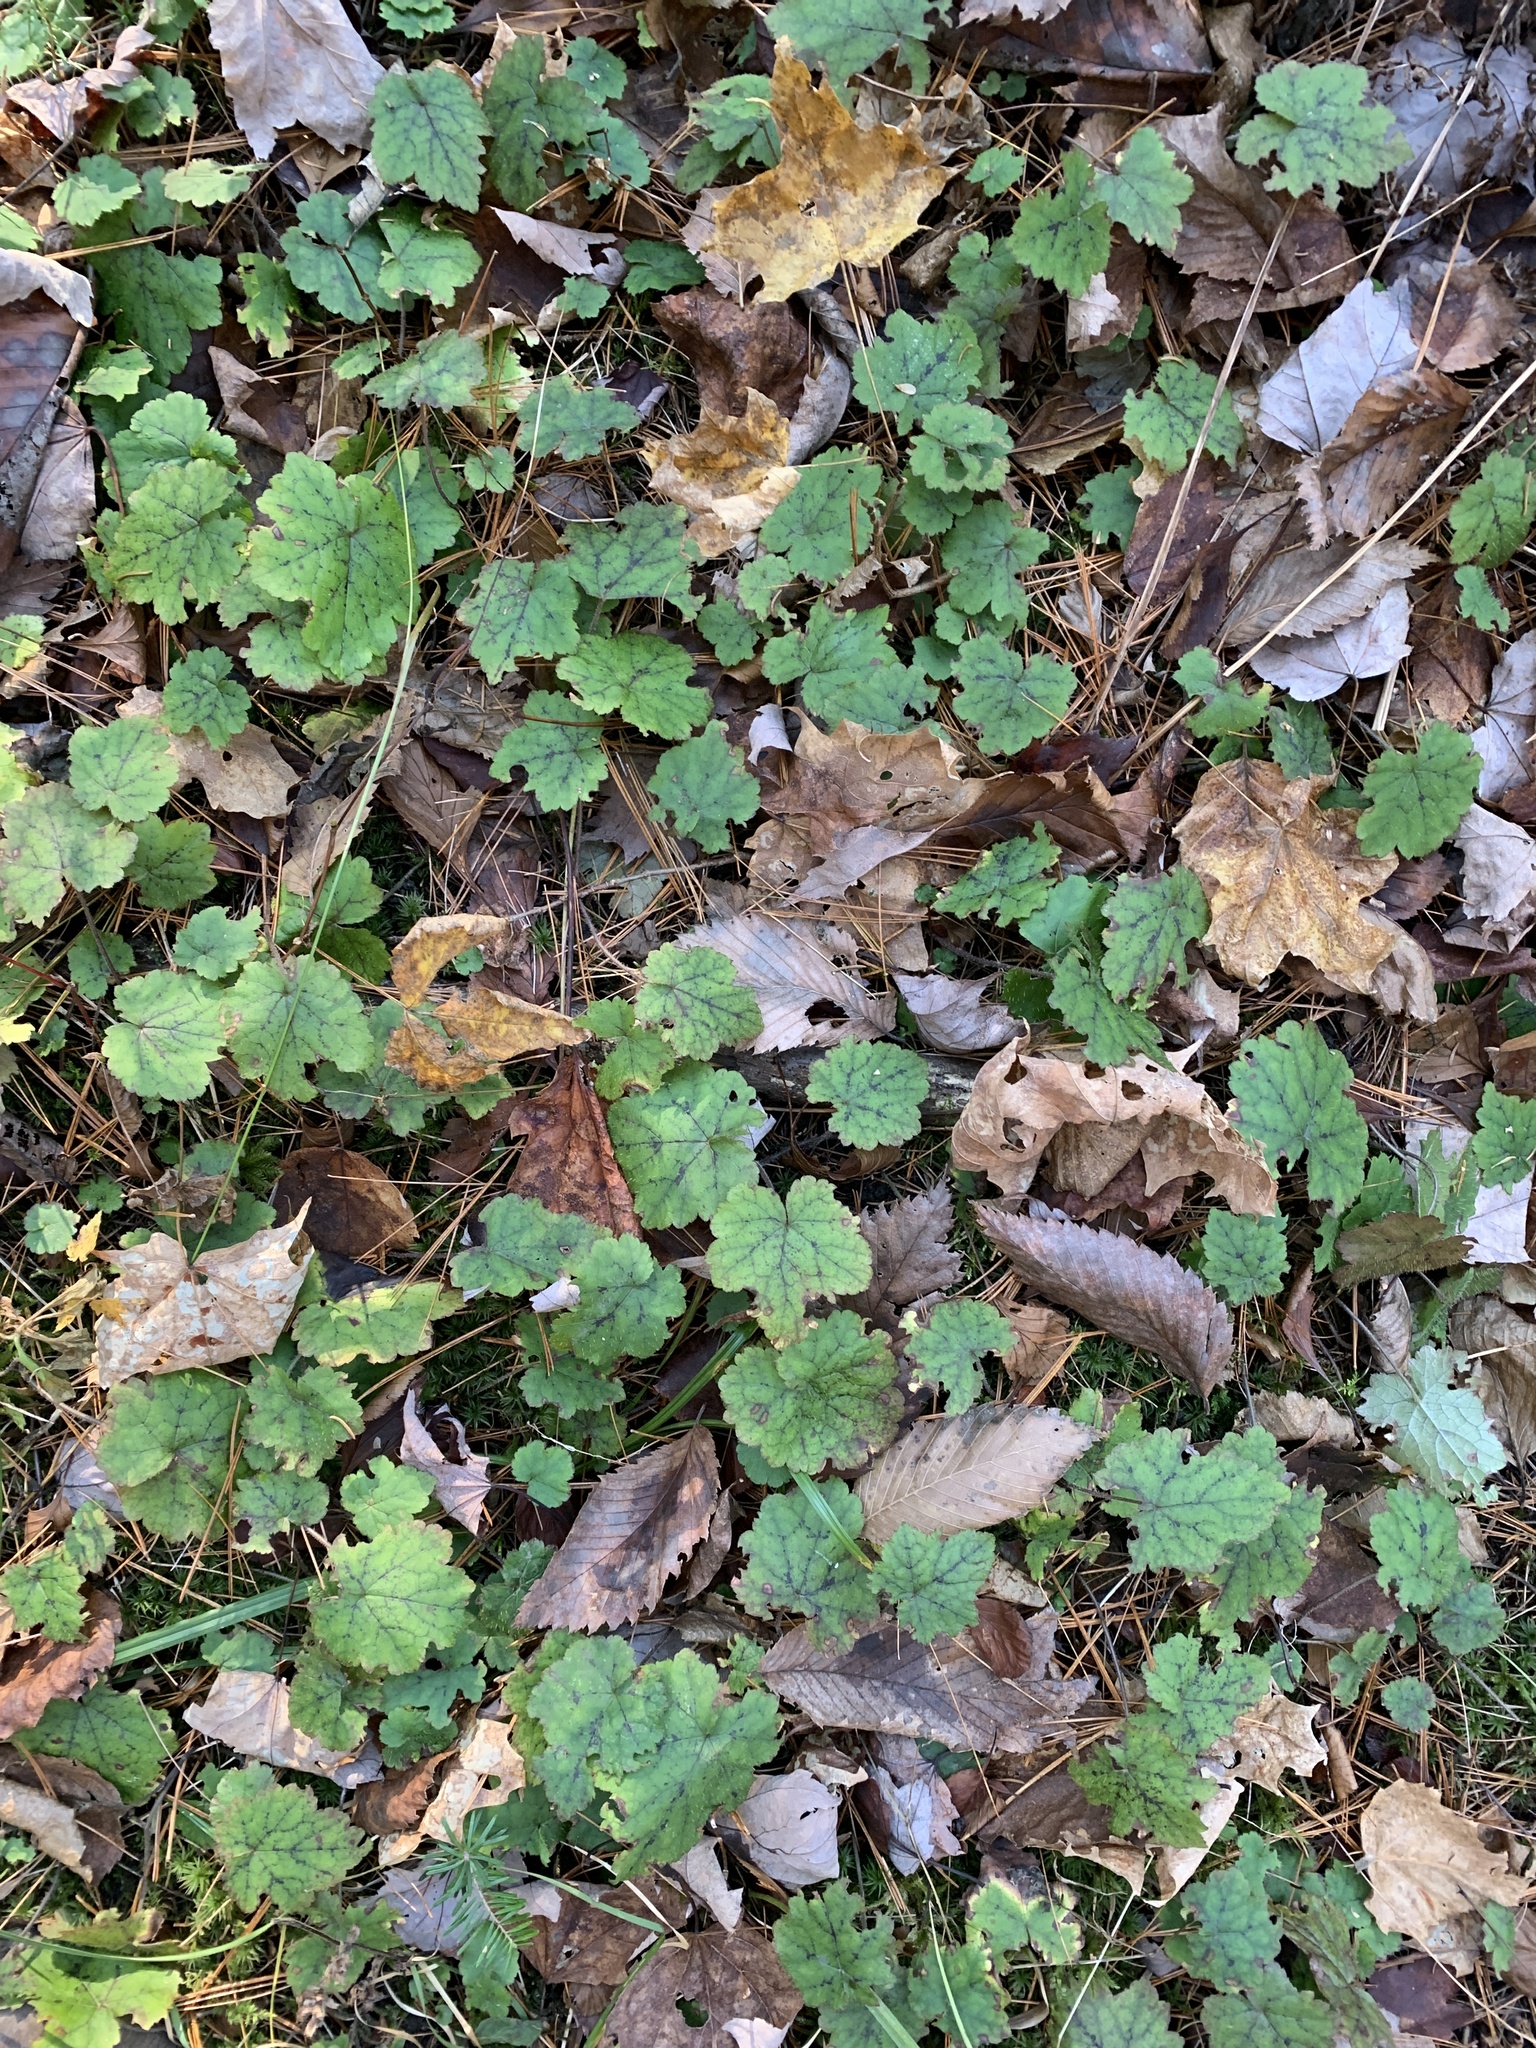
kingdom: Plantae
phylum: Tracheophyta
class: Magnoliopsida
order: Saxifragales
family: Saxifragaceae
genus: Tiarella
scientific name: Tiarella stolonifera
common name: Stoloniferous foamflower
